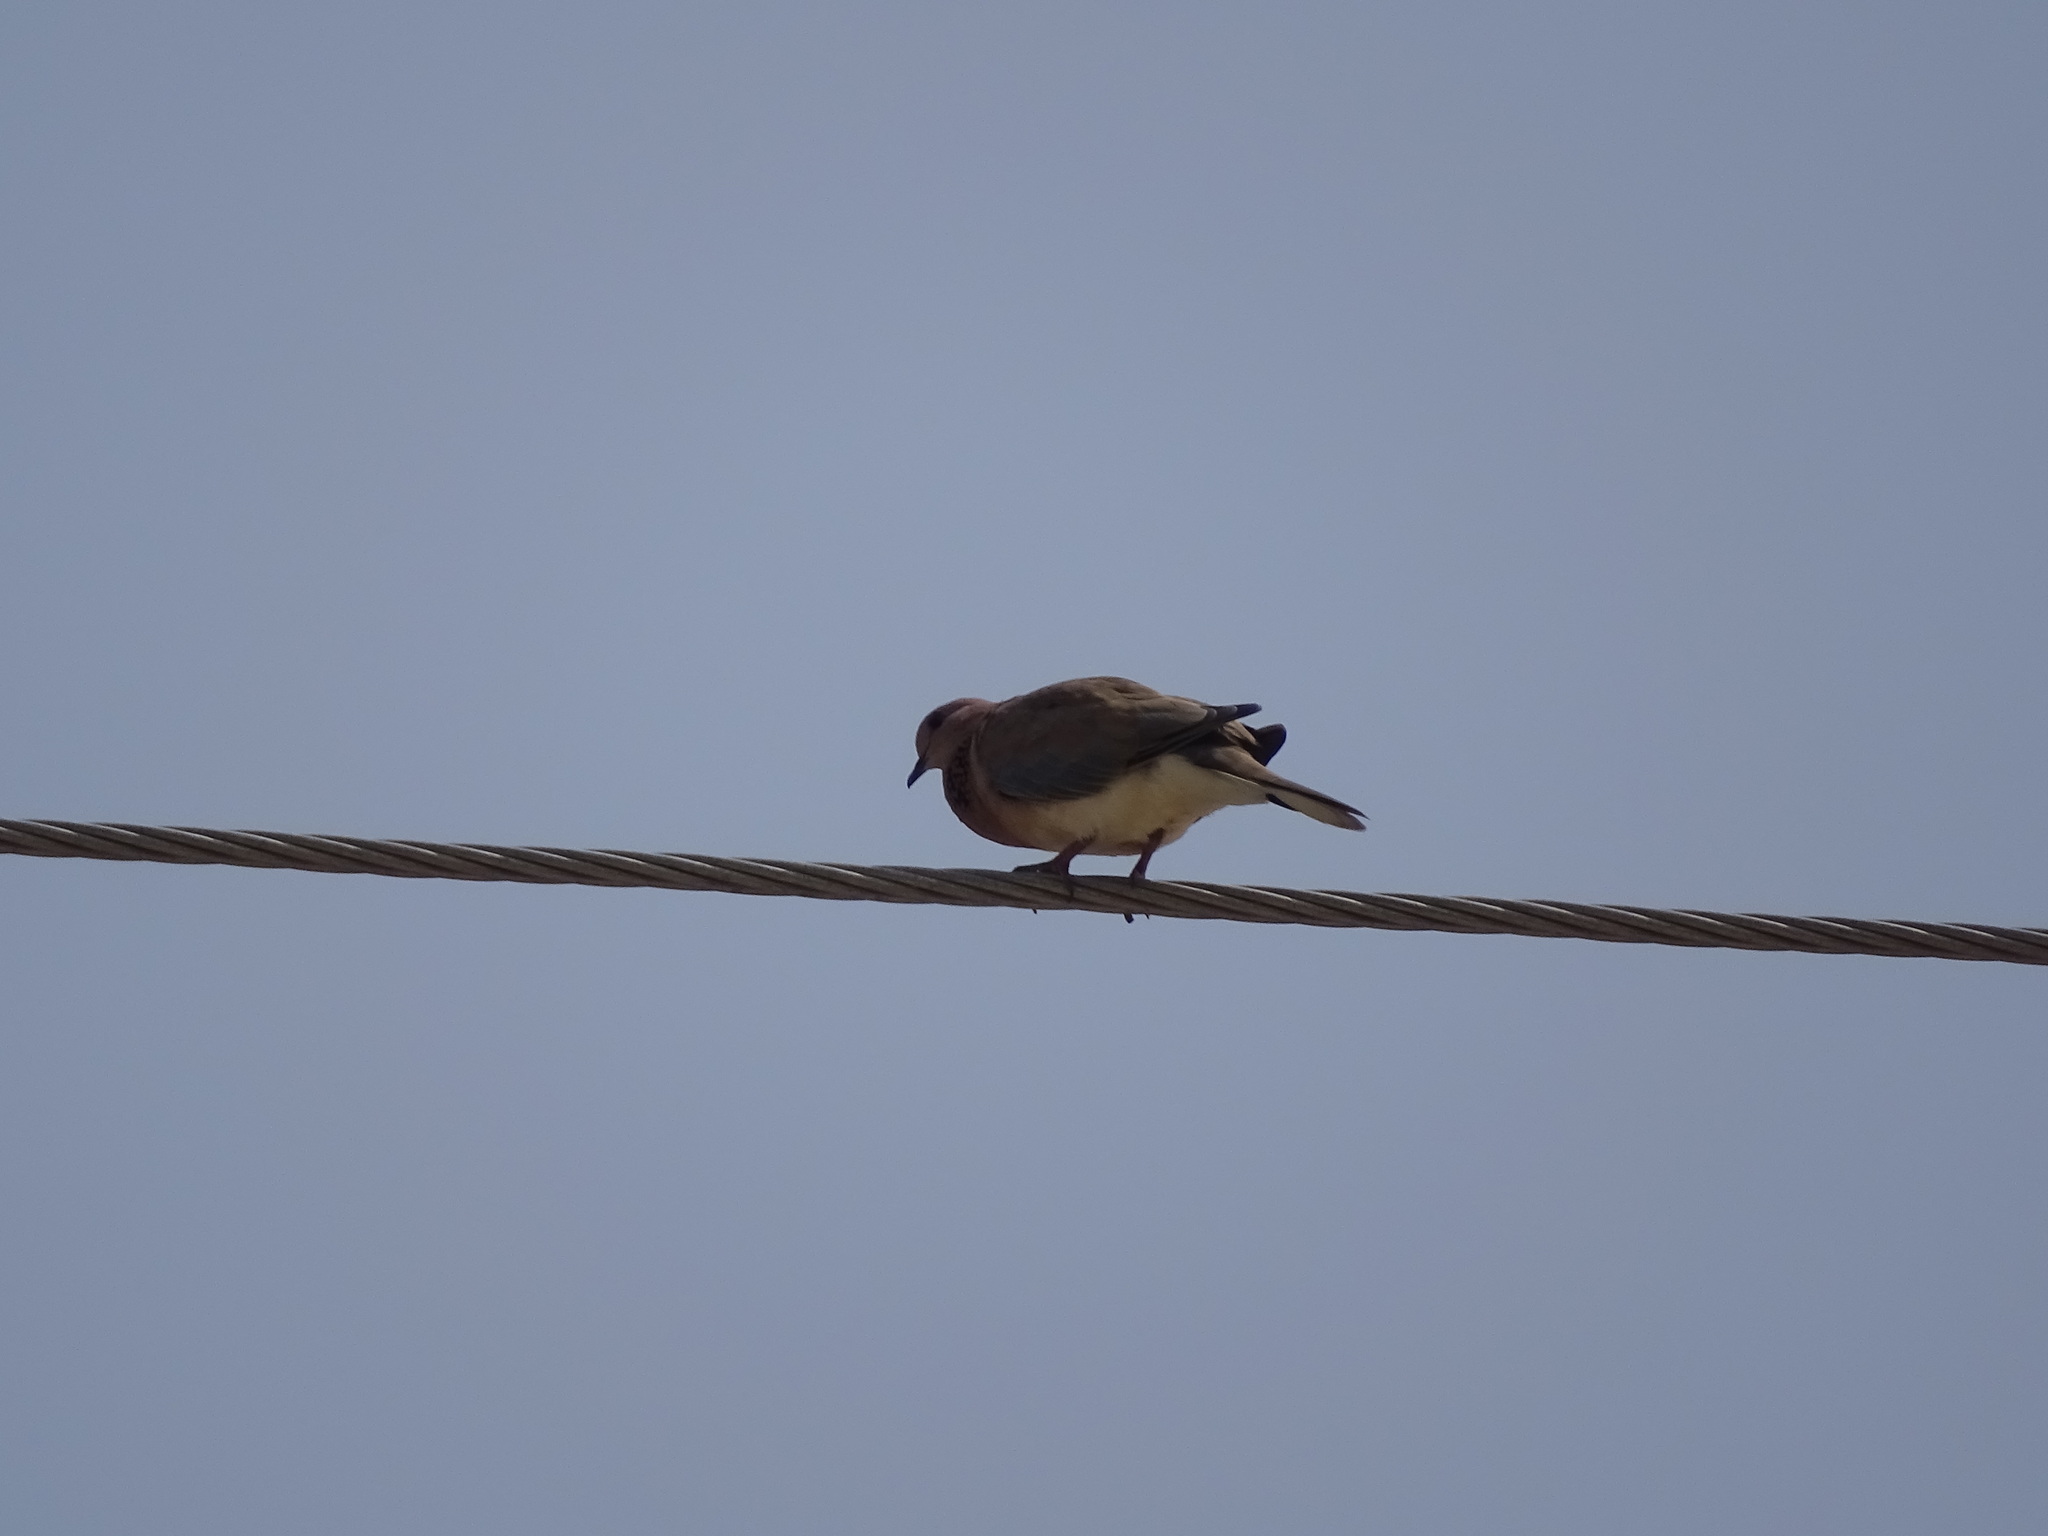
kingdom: Animalia
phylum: Chordata
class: Aves
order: Columbiformes
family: Columbidae
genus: Spilopelia
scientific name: Spilopelia senegalensis
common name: Laughing dove
